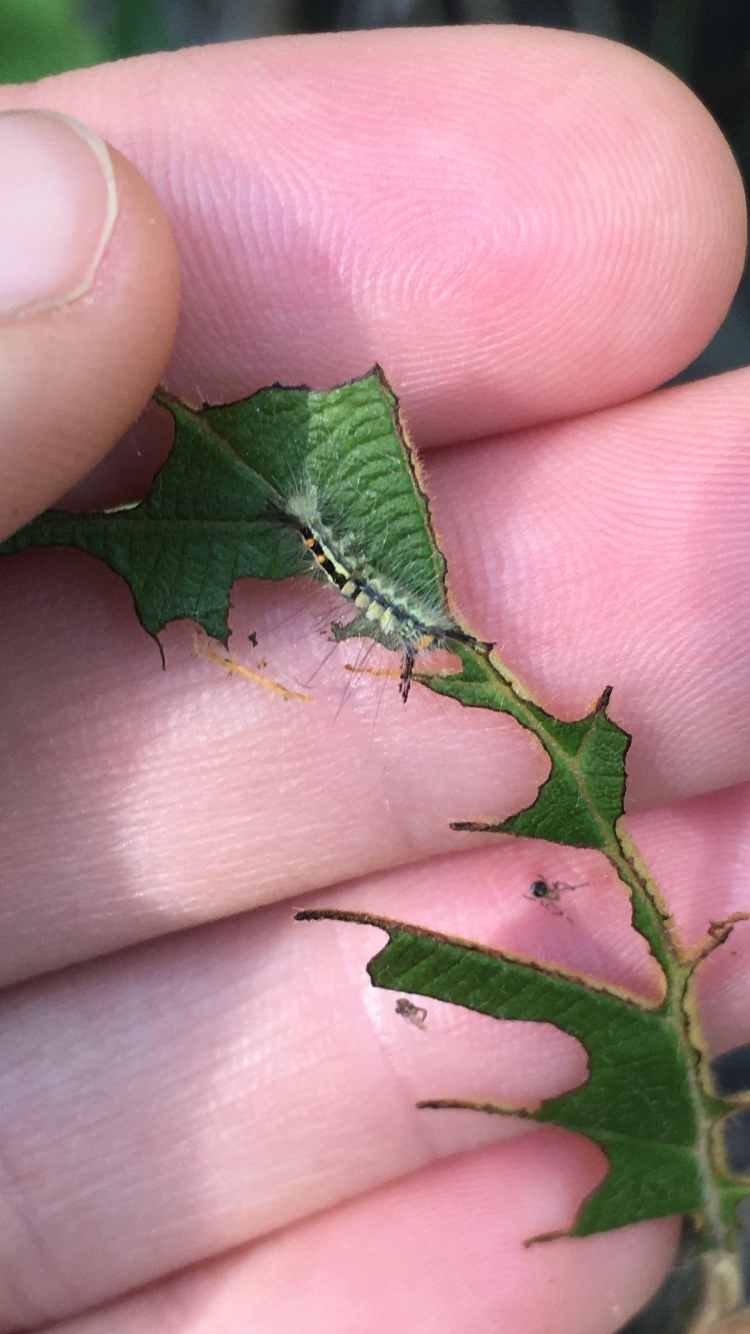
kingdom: Animalia
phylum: Arthropoda
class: Insecta
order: Lepidoptera
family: Erebidae
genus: Orgyia
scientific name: Orgyia leucostigma
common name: White-marked tussock moth
